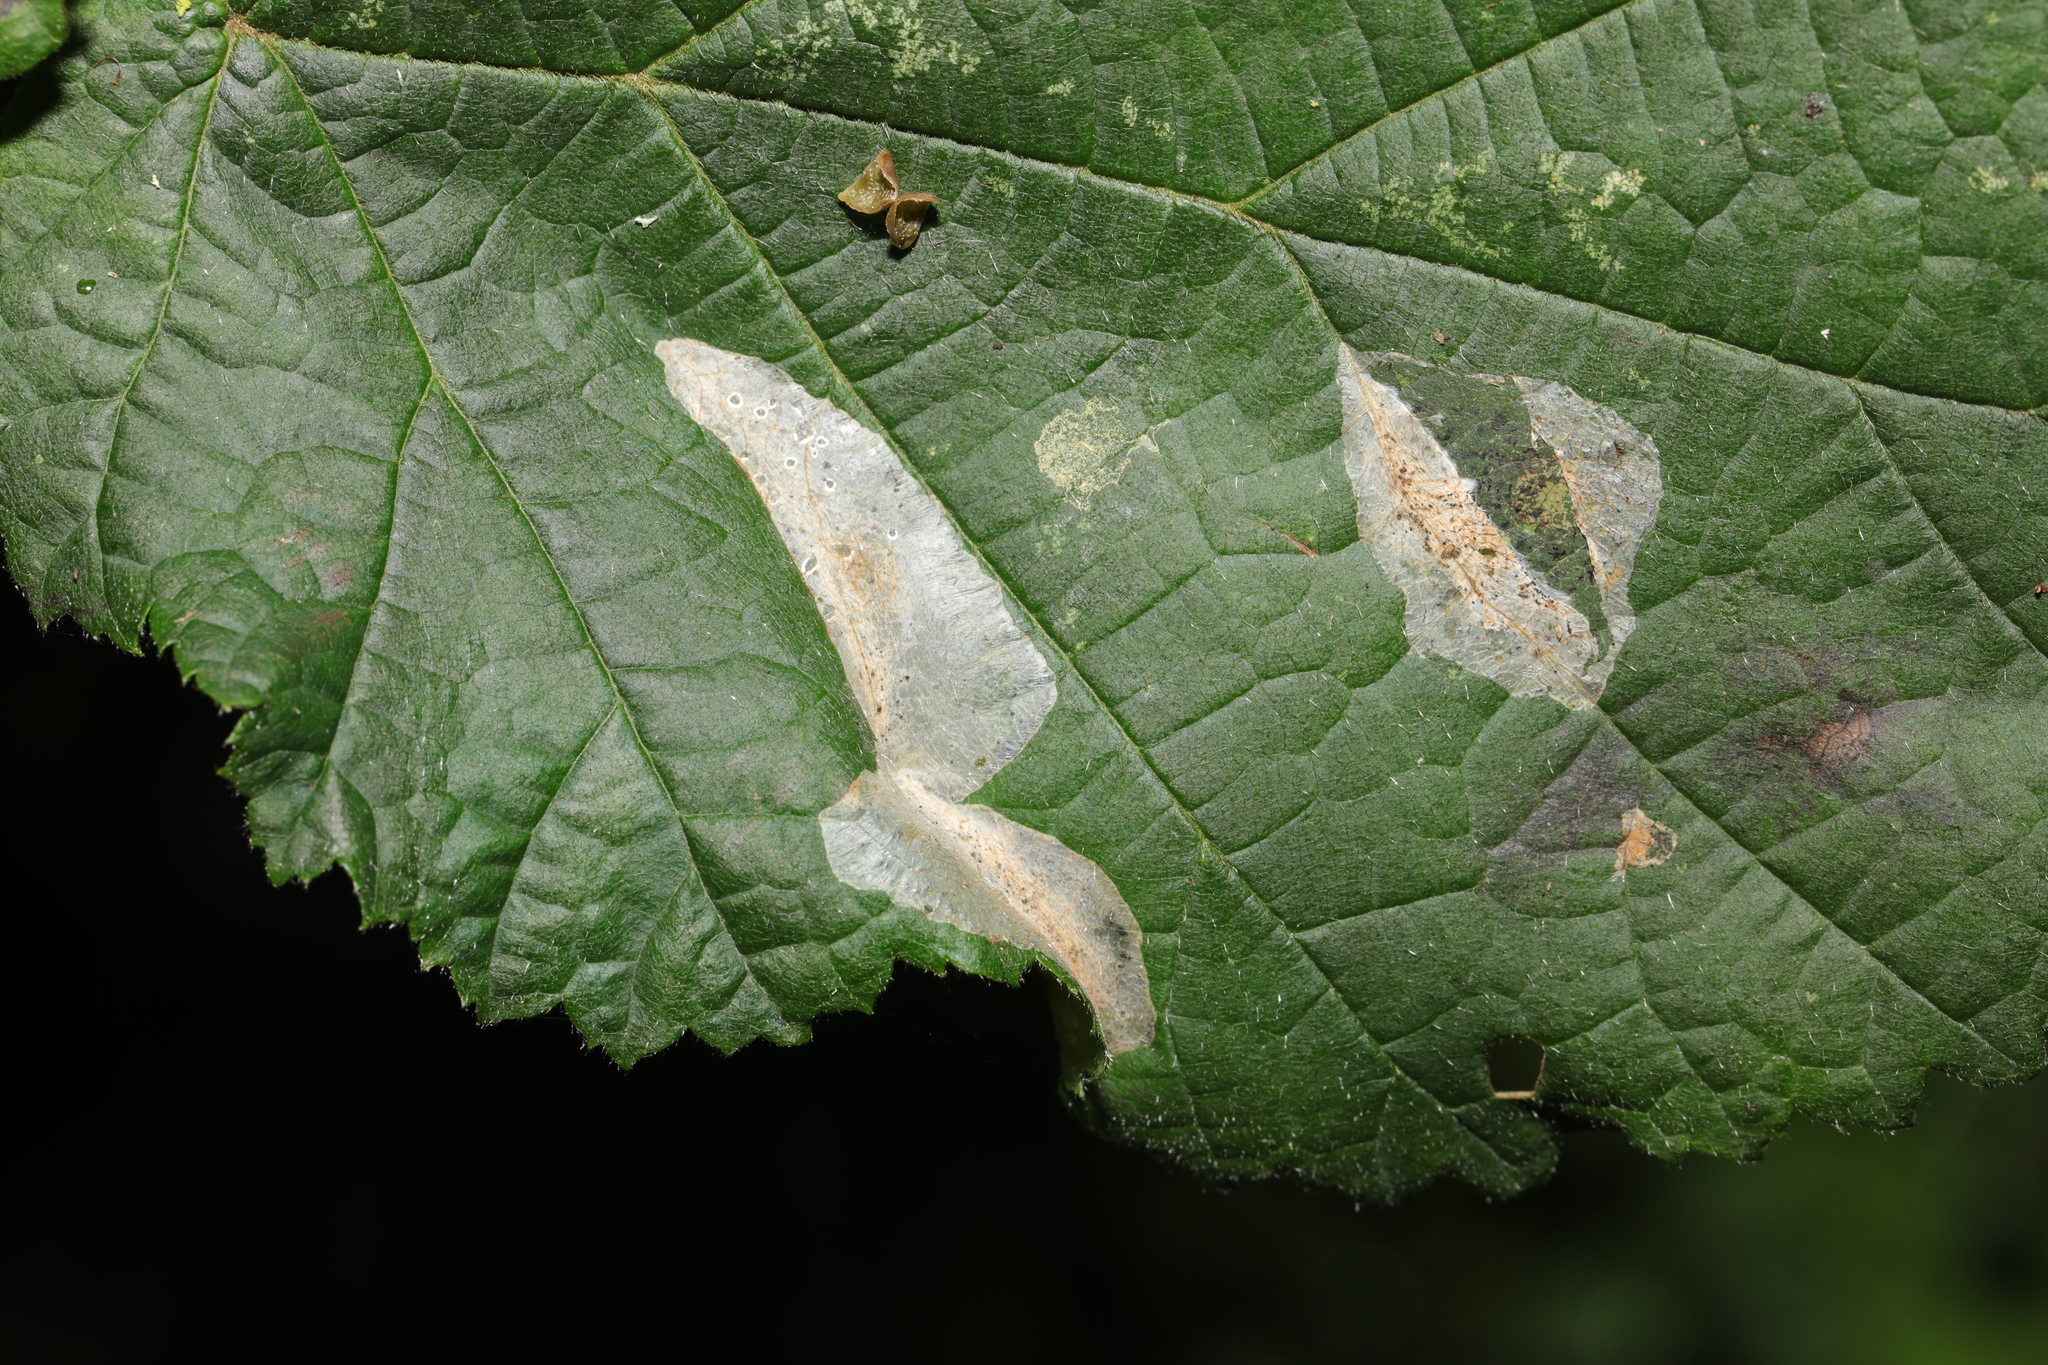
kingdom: Animalia
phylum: Arthropoda
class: Insecta
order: Lepidoptera
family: Gracillariidae
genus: Phyllonorycter
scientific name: Phyllonorycter coryli
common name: Nut-leaf blister moth
